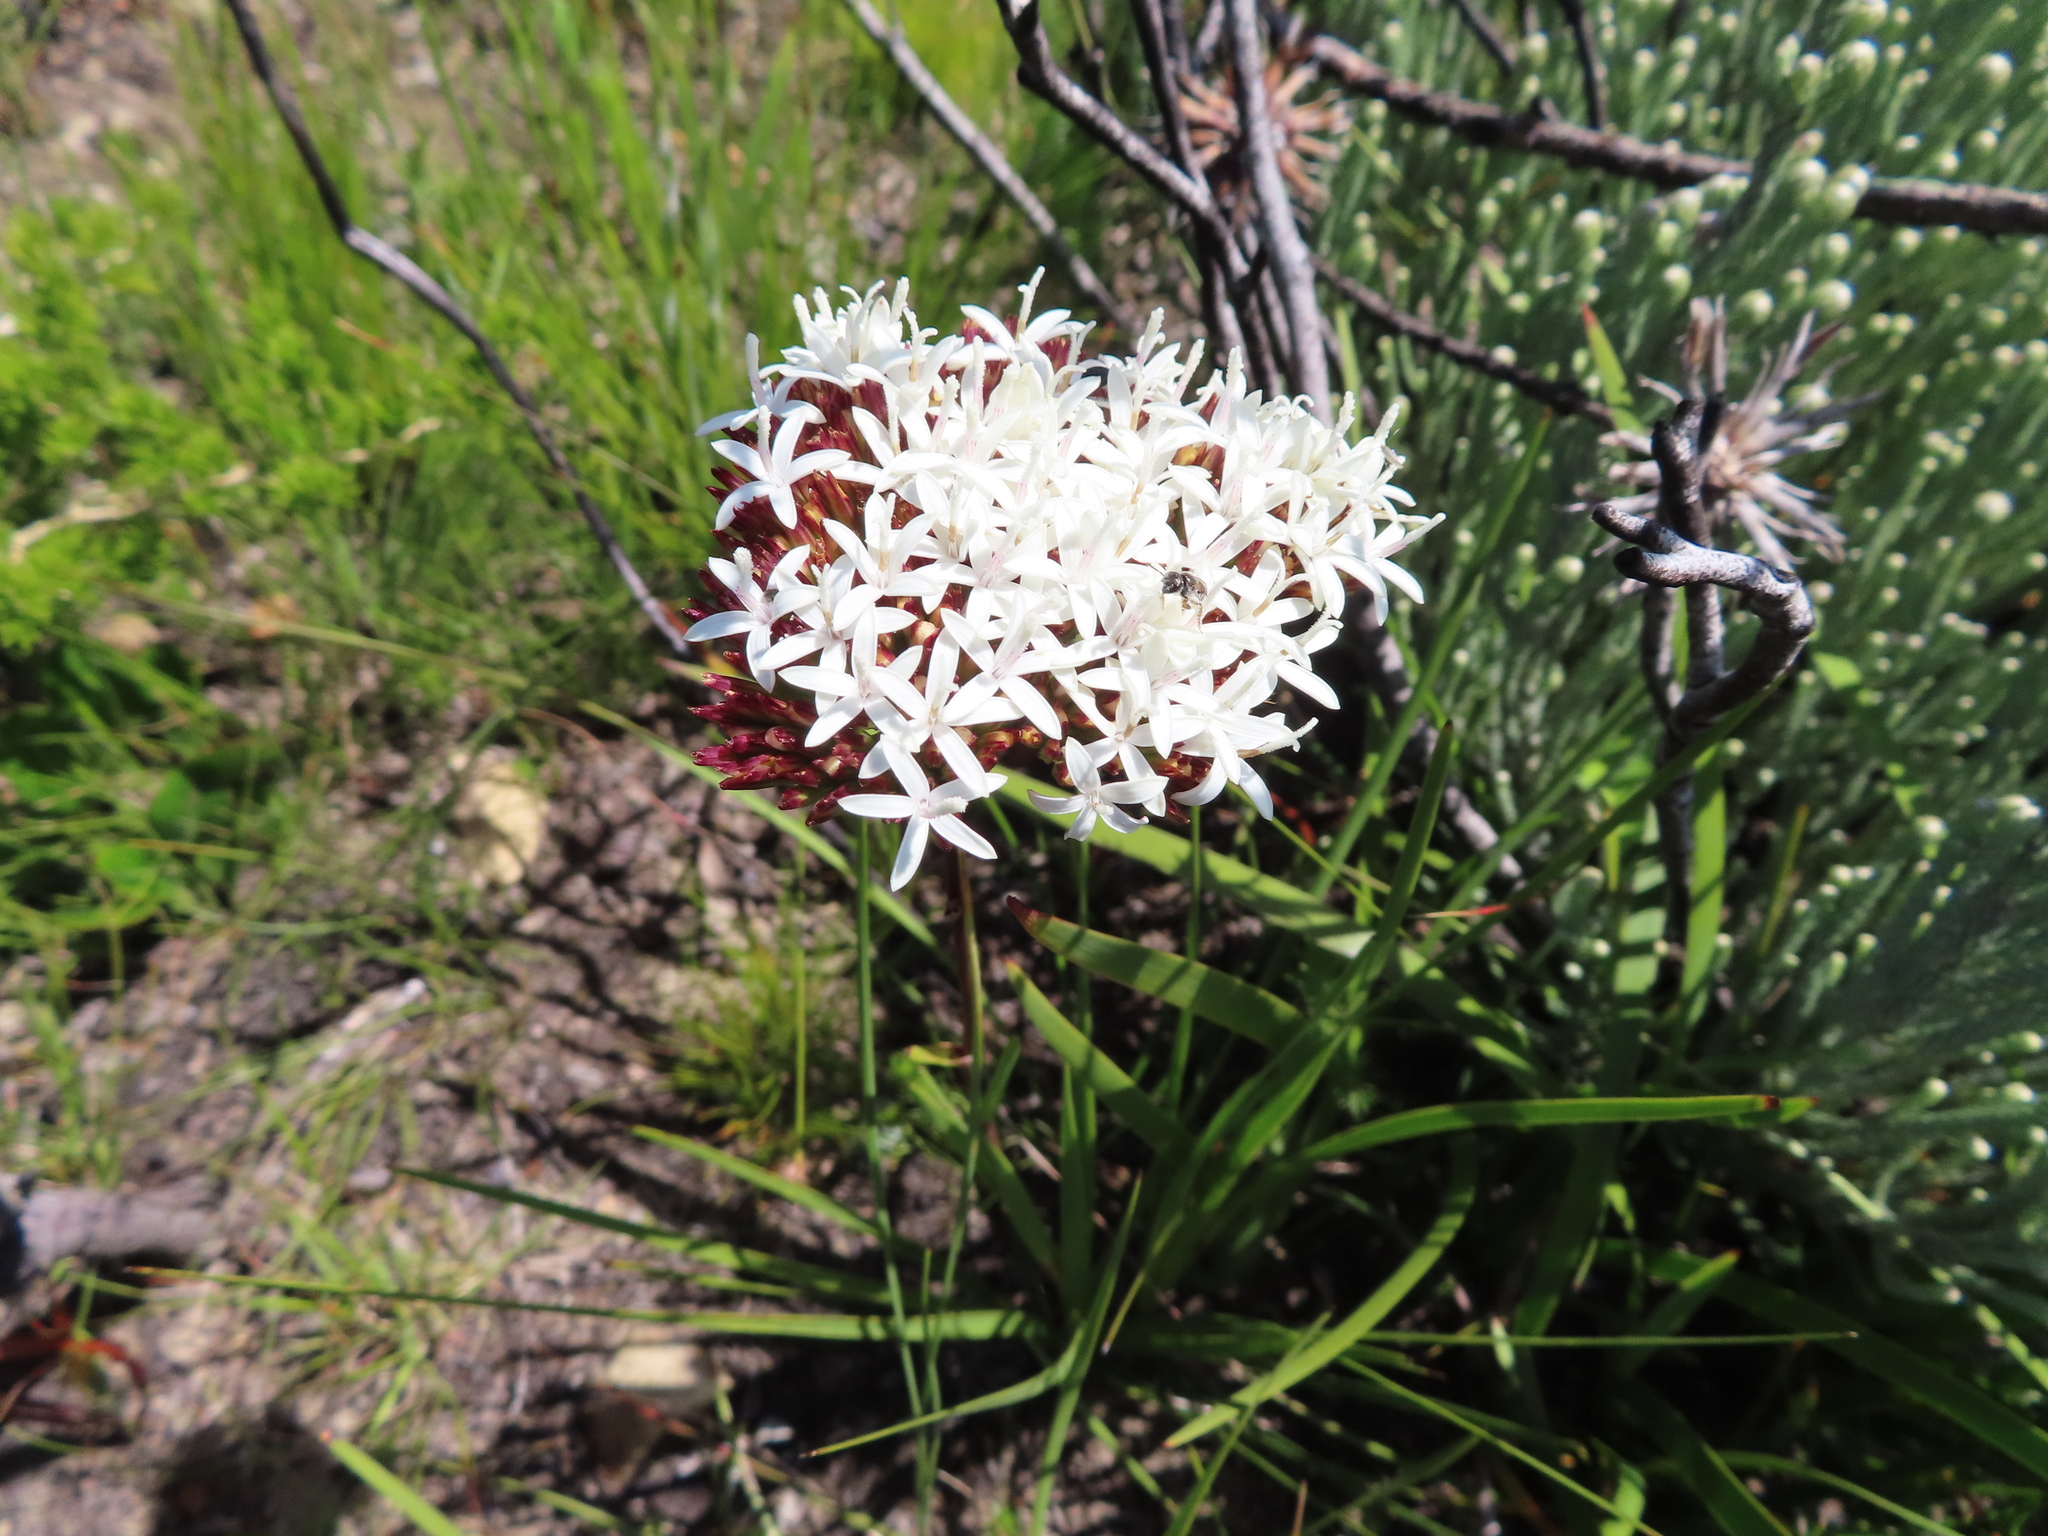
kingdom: Plantae
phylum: Tracheophyta
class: Magnoliopsida
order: Asterales
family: Asteraceae
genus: Corymbium
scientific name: Corymbium glabrum
